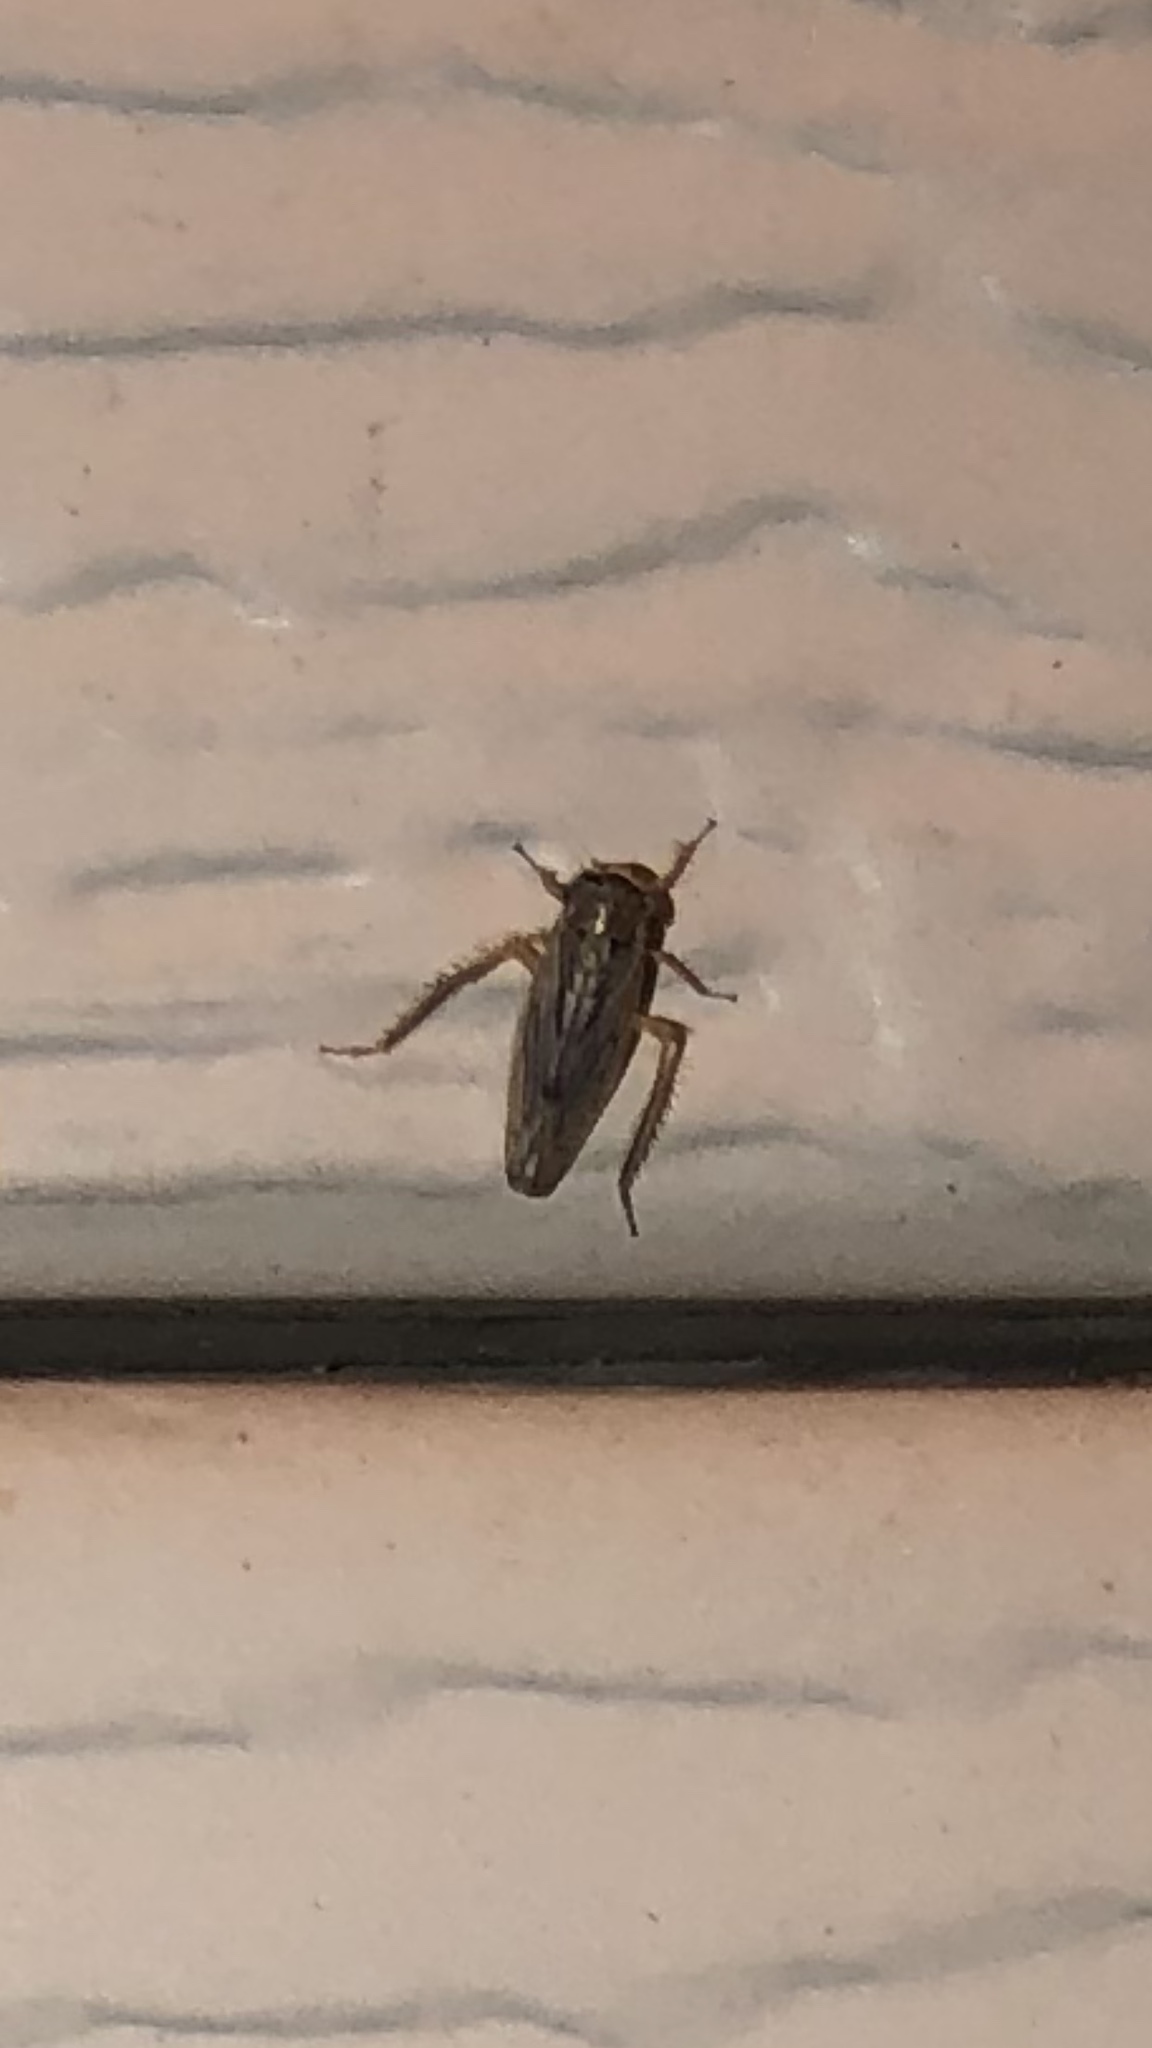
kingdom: Animalia
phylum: Arthropoda
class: Insecta
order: Hemiptera
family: Cicadellidae
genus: Exitianus
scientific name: Exitianus exitiosus
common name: Gray lawn leafhopper
